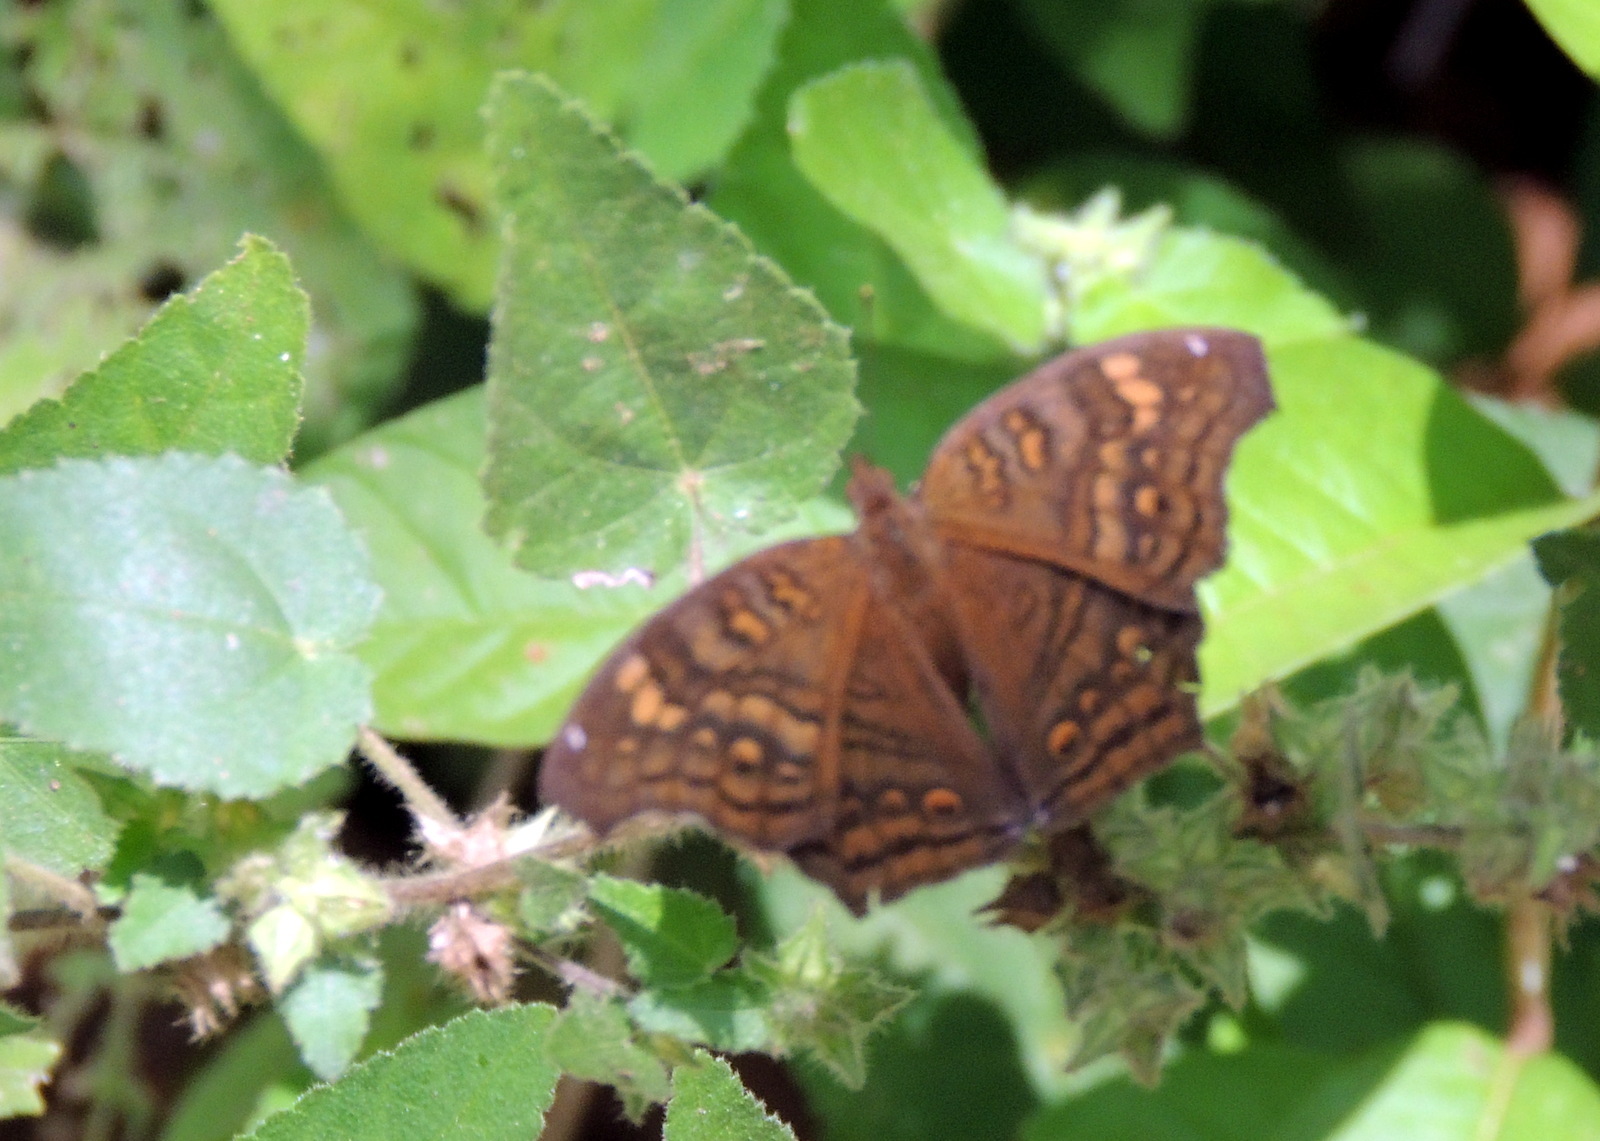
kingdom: Animalia
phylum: Arthropoda
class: Insecta
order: Lepidoptera
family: Nymphalidae
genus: Junonia
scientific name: Junonia chorimene
